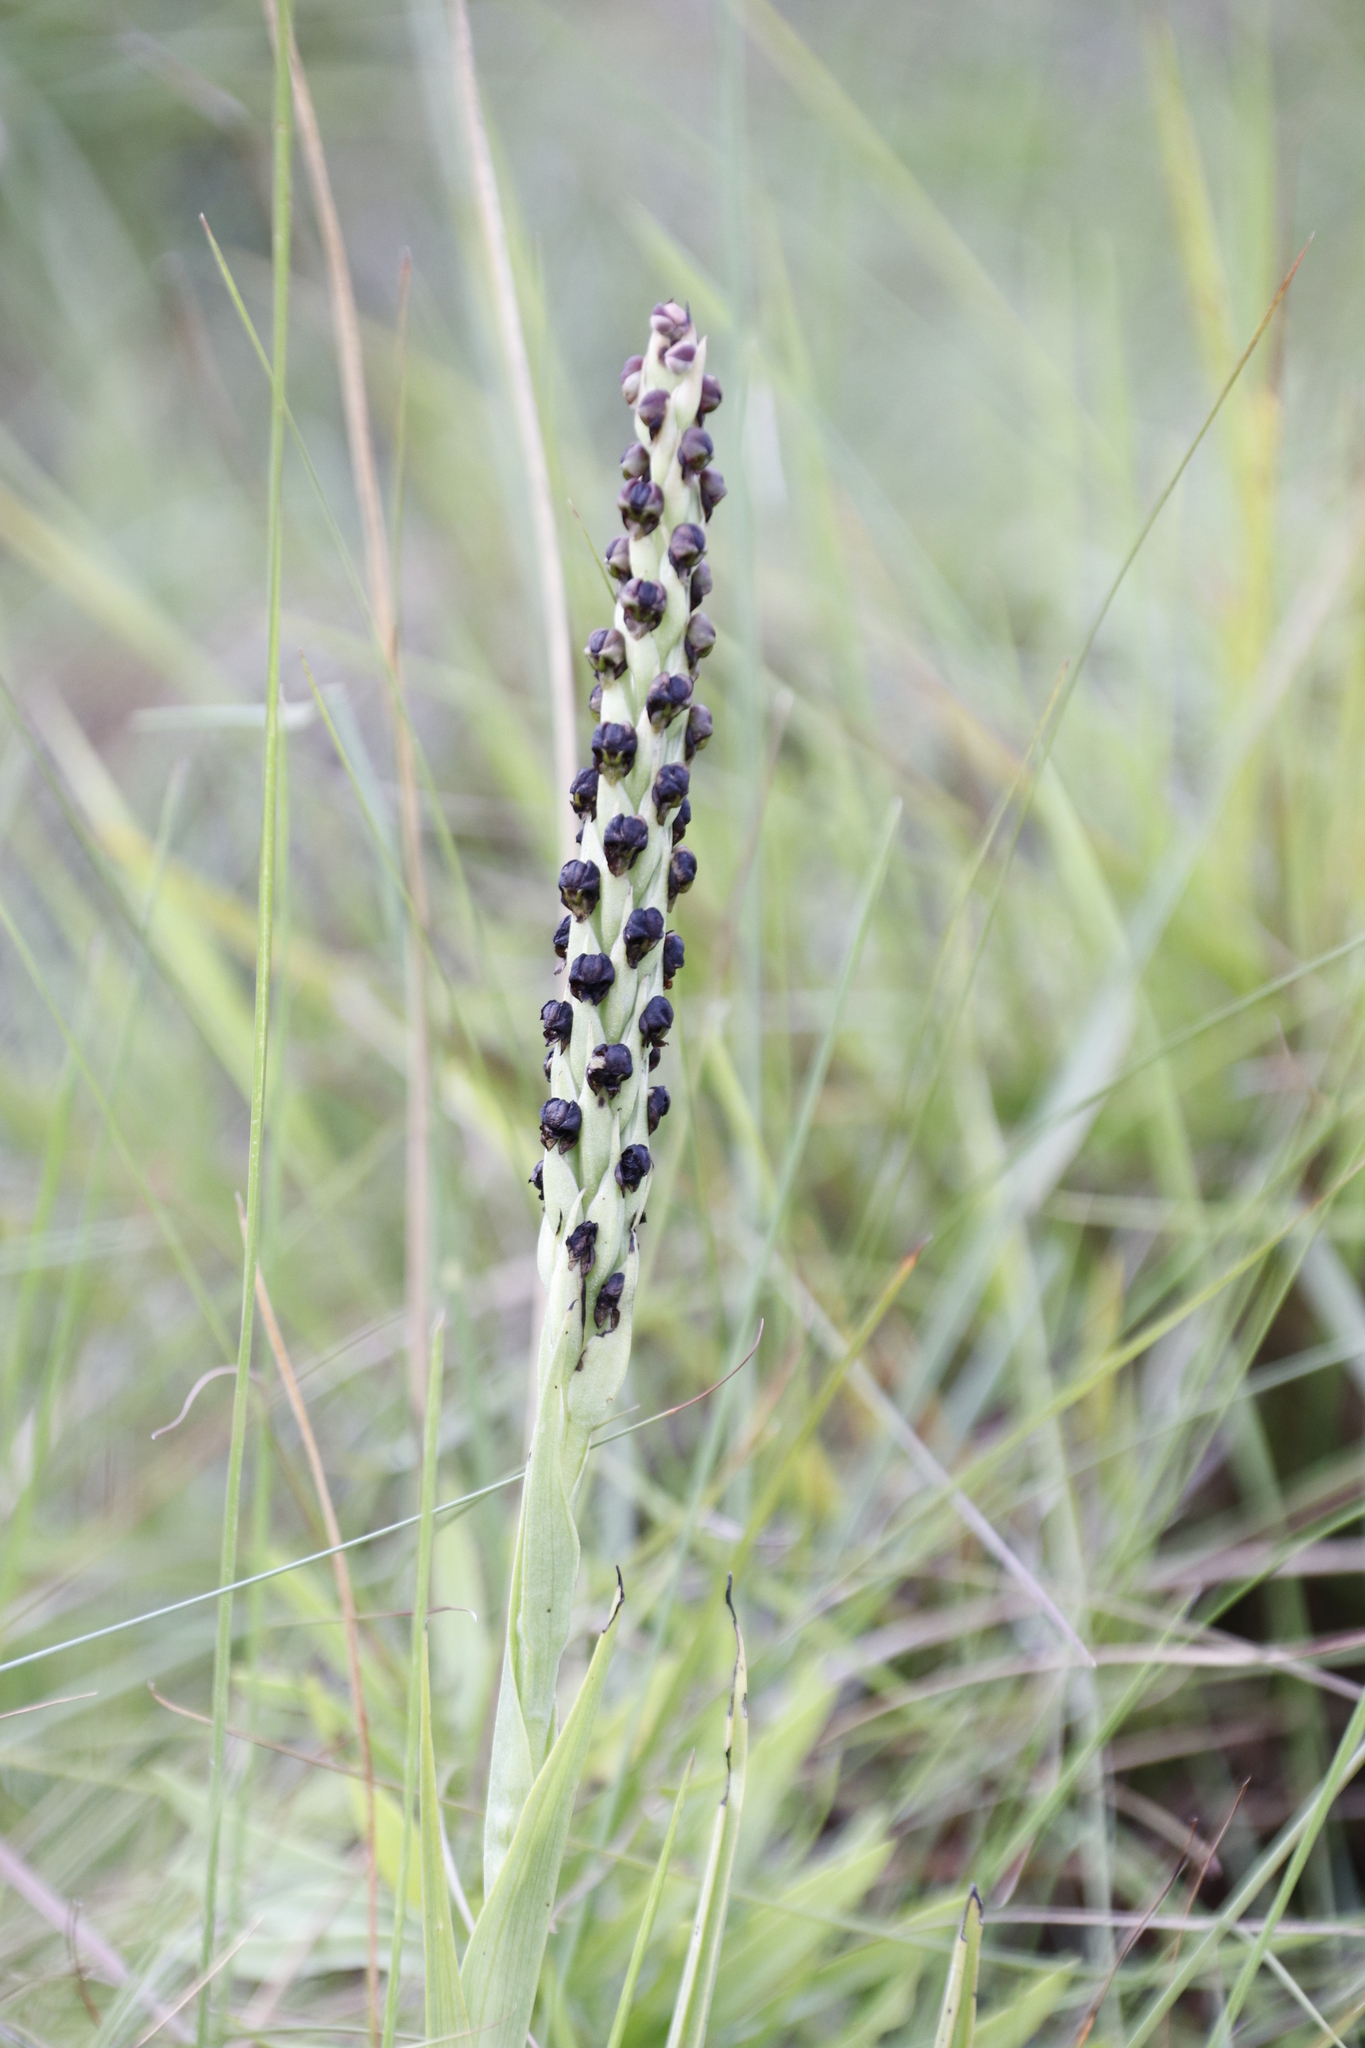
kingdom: Plantae
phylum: Tracheophyta
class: Liliopsida
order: Asparagales
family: Orchidaceae
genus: Corycium
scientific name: Corycium nigrescens
